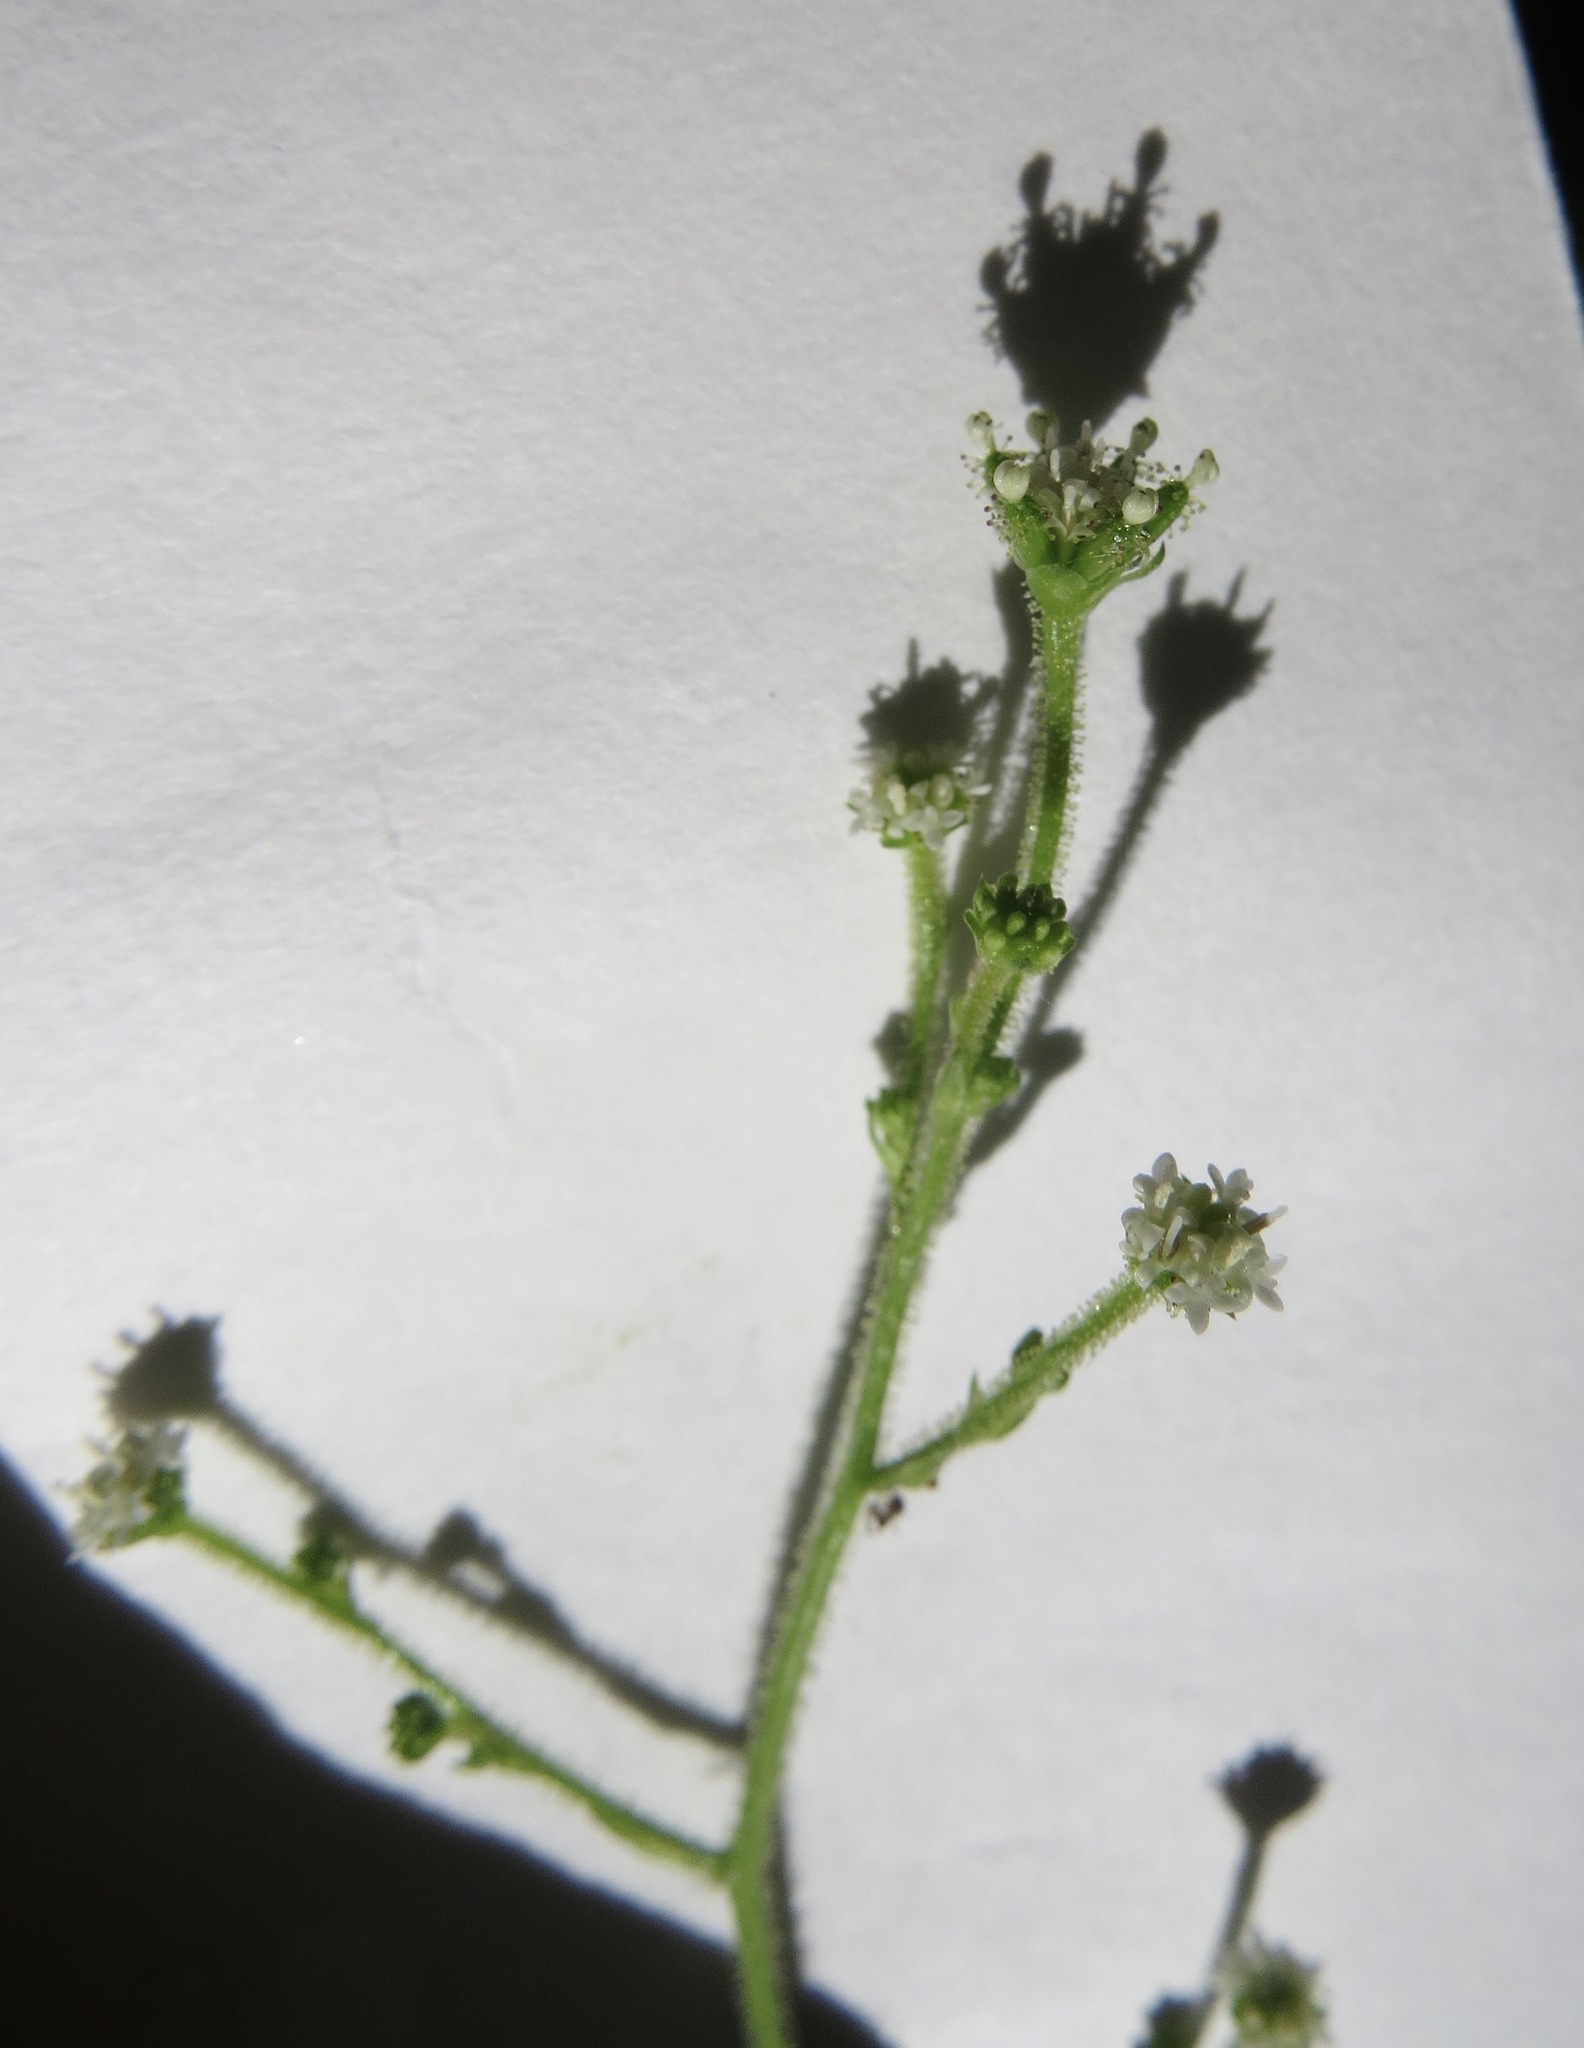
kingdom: Plantae
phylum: Tracheophyta
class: Magnoliopsida
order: Asterales
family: Asteraceae
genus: Adenocaulon
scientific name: Adenocaulon bicolor
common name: Trailplant
